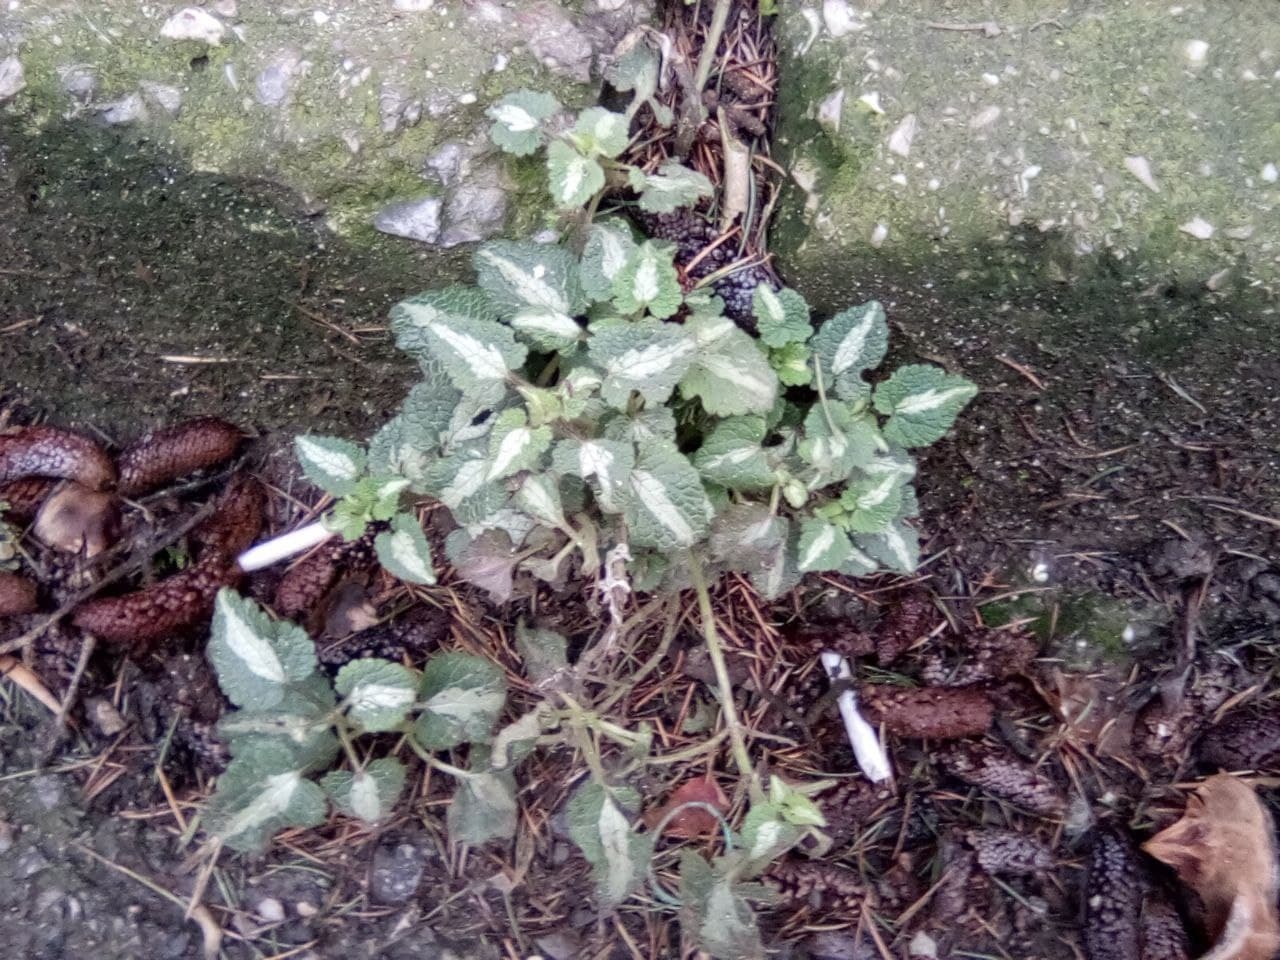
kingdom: Plantae
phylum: Tracheophyta
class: Magnoliopsida
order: Lamiales
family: Lamiaceae
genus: Lamium
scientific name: Lamium maculatum
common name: Spotted dead-nettle
